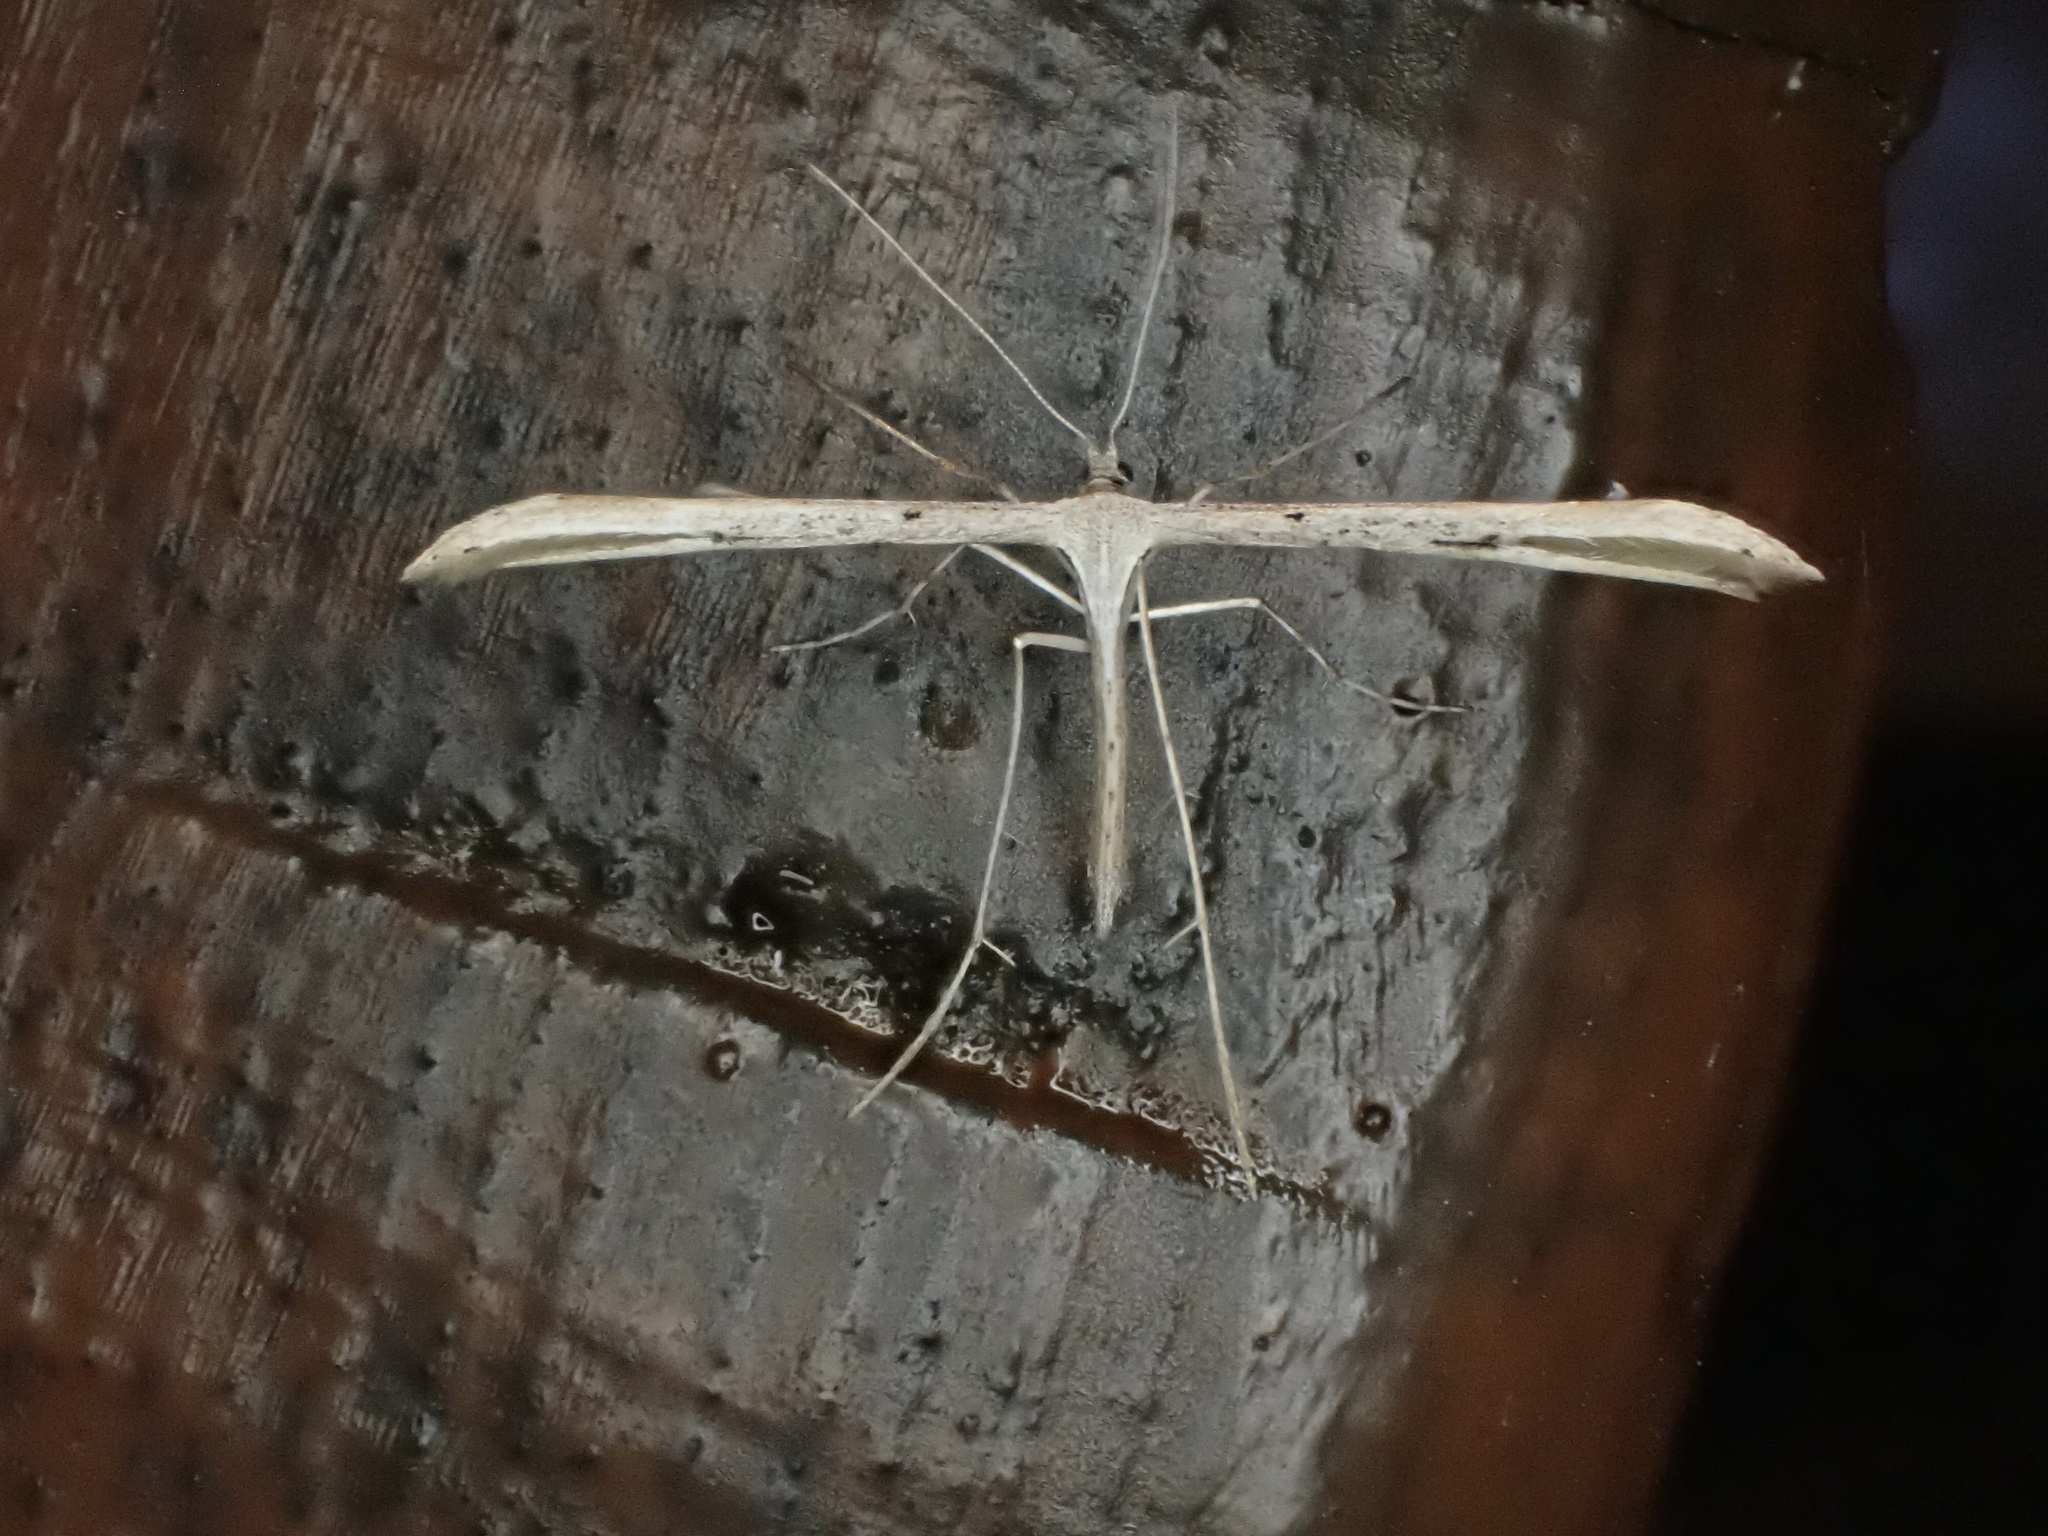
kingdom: Animalia
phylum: Arthropoda
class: Insecta
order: Lepidoptera
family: Pterophoridae
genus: Emmelina
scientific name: Emmelina monodactyla
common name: Common plume
